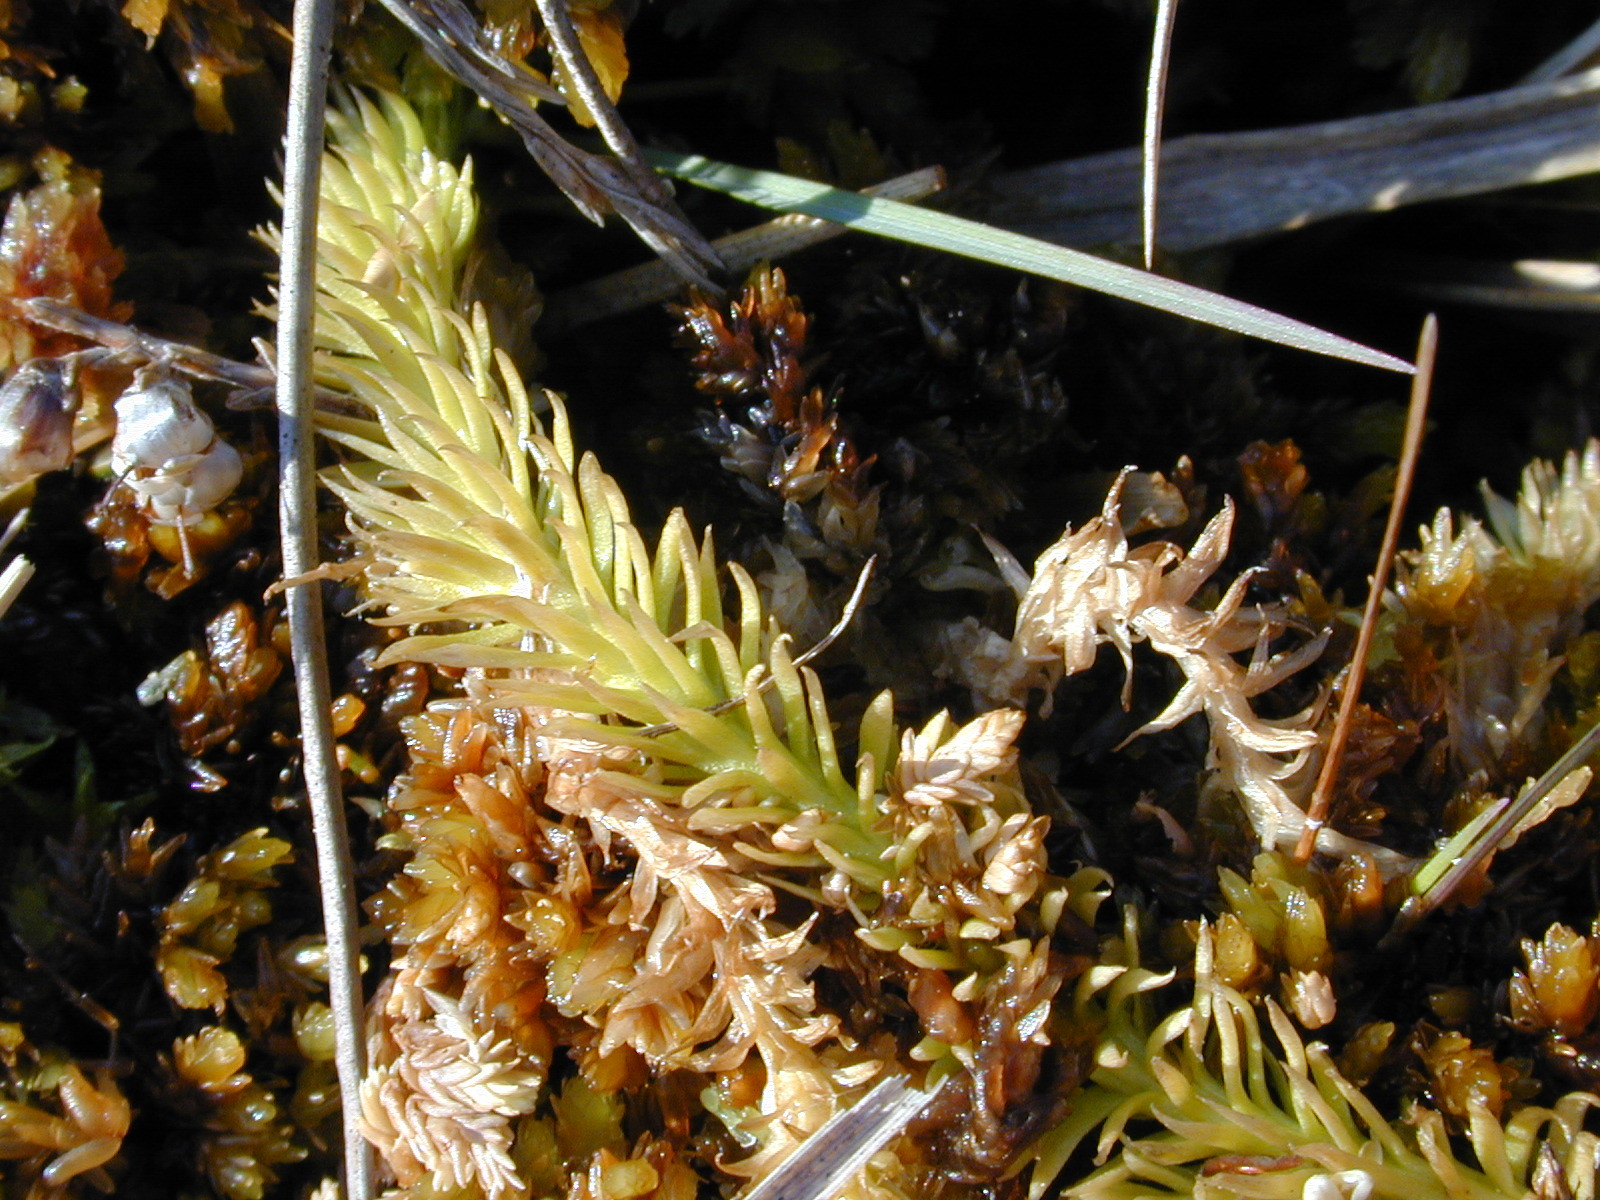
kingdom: Plantae
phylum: Tracheophyta
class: Lycopodiopsida
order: Lycopodiales
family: Lycopodiaceae
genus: Lycopodiella
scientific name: Lycopodiella inundata
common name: Marsh clubmoss
